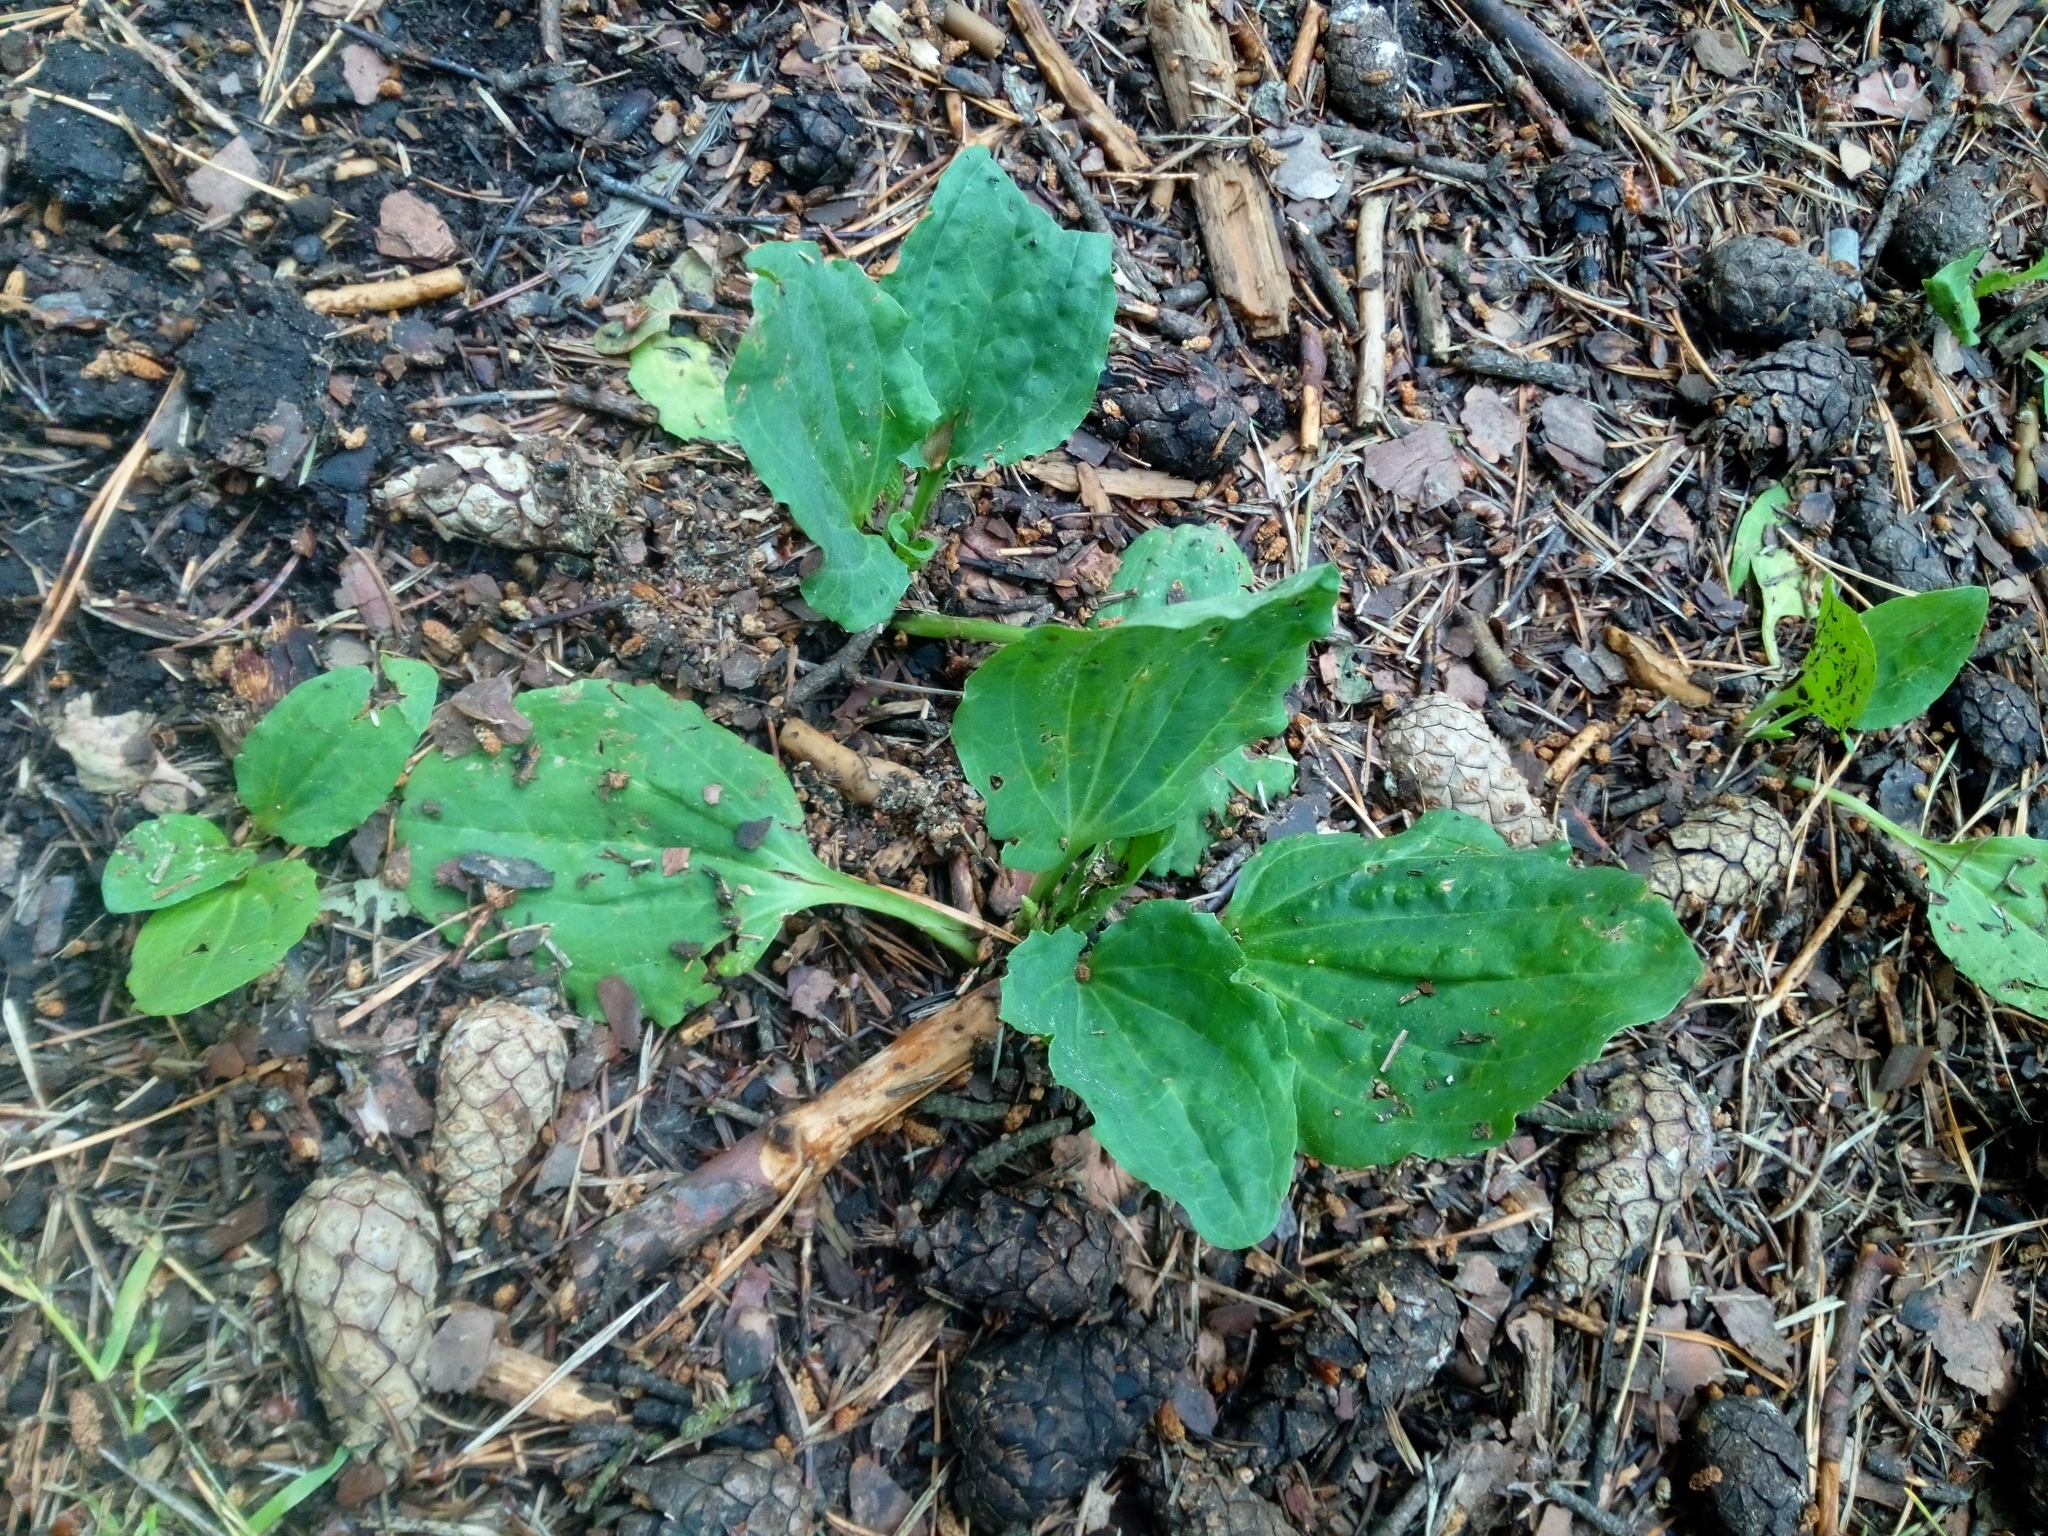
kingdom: Plantae
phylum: Tracheophyta
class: Magnoliopsida
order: Lamiales
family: Plantaginaceae
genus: Plantago
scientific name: Plantago major
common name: Common plantain
